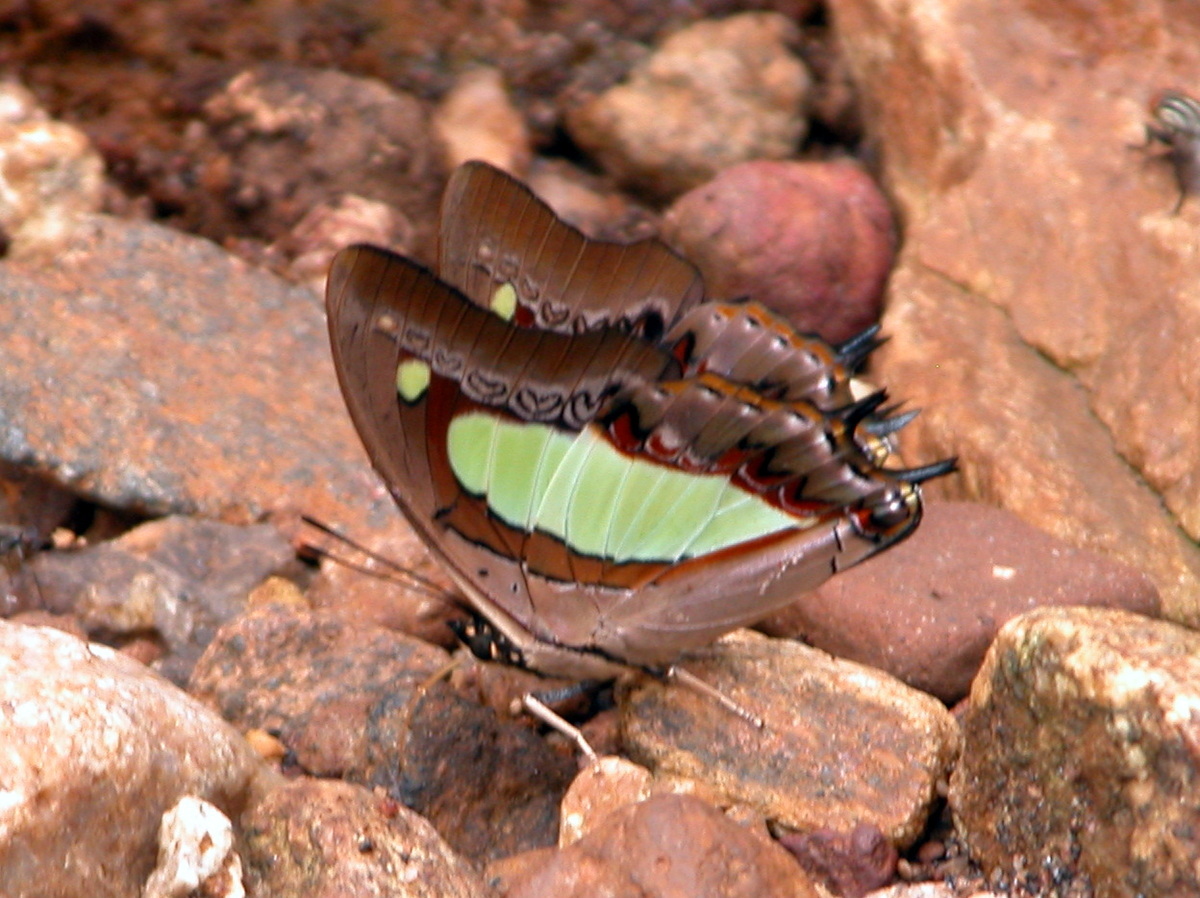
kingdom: Animalia
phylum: Arthropoda
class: Insecta
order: Lepidoptera
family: Nymphalidae
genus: Polyura
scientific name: Polyura
